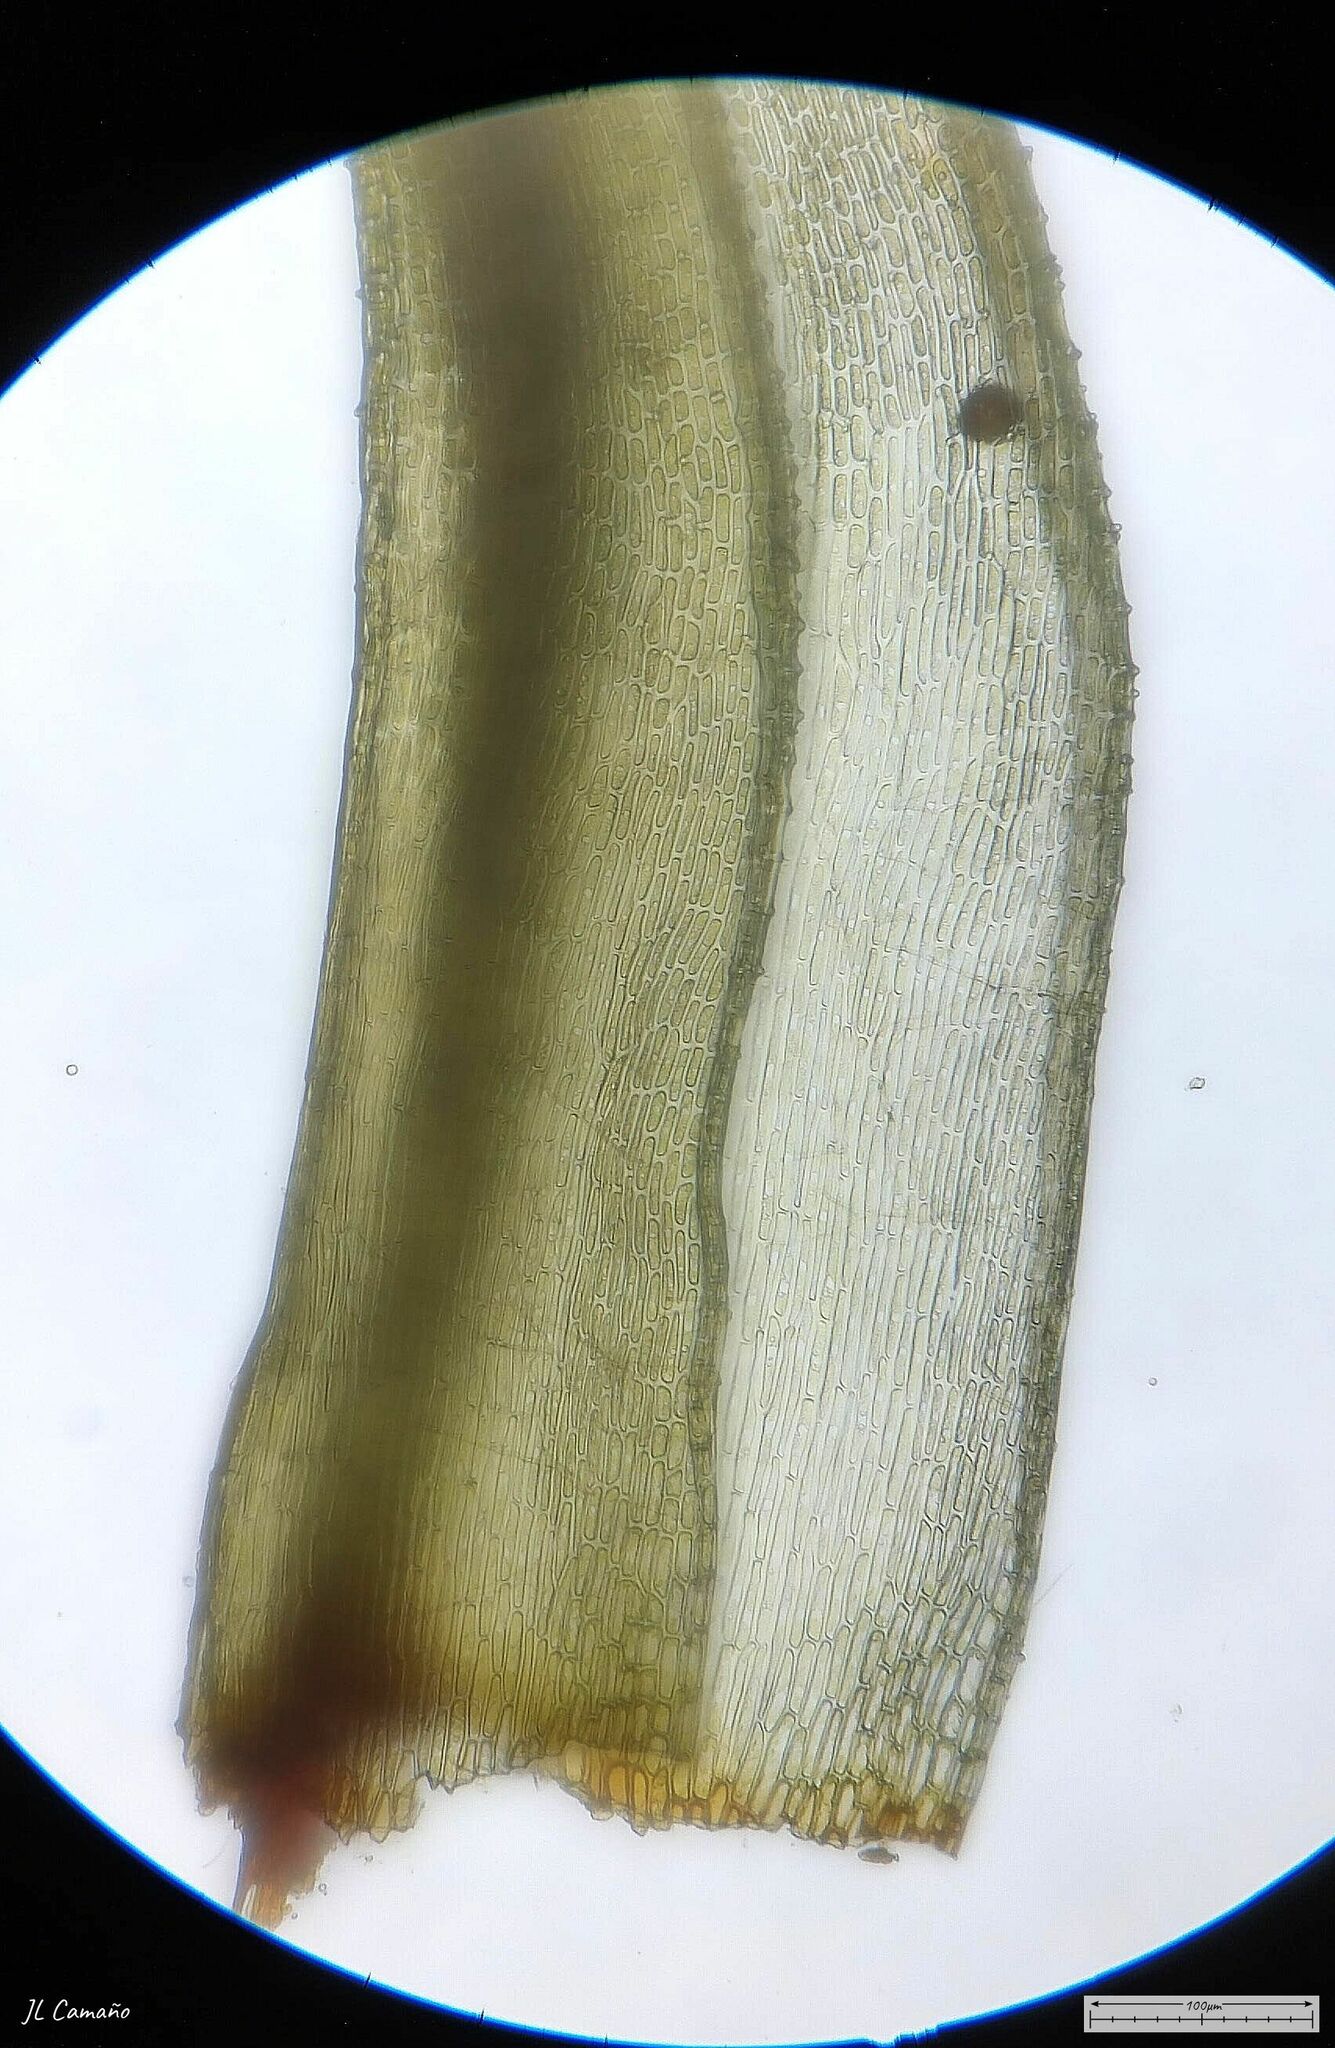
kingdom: Plantae
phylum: Bryophyta
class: Bryopsida
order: Bartramiales
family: Bartramiaceae
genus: Bartramia
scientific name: Bartramia ithyphylla
